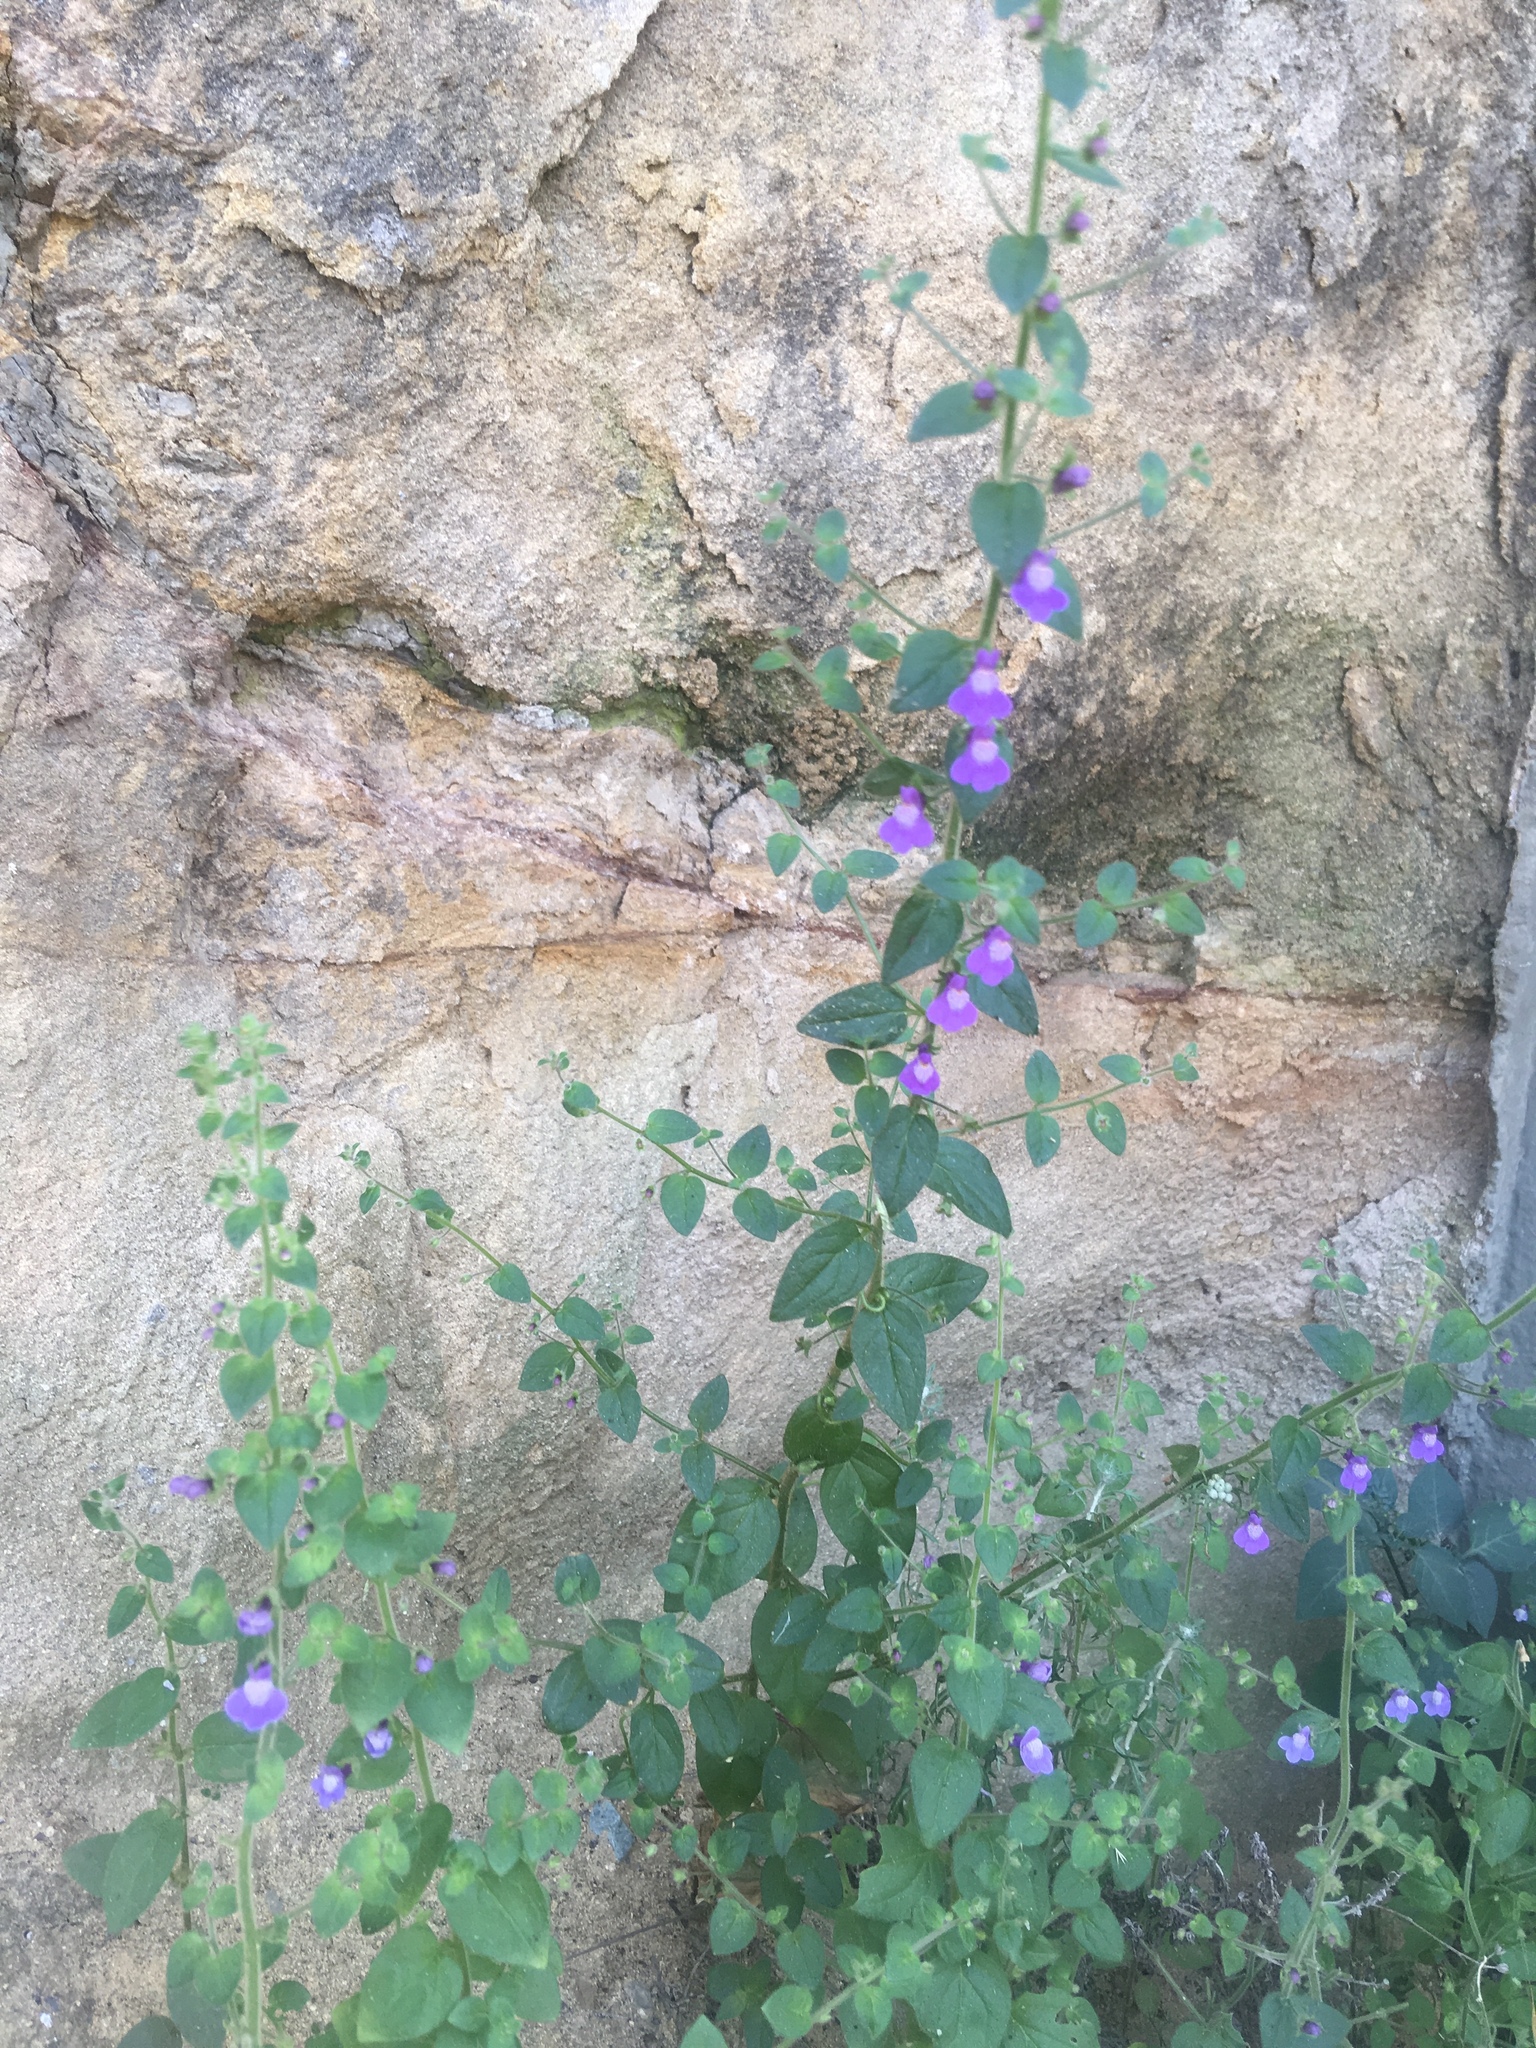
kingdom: Plantae
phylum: Tracheophyta
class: Magnoliopsida
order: Lamiales
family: Plantaginaceae
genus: Sairocarpus
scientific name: Sairocarpus nuttallianus
